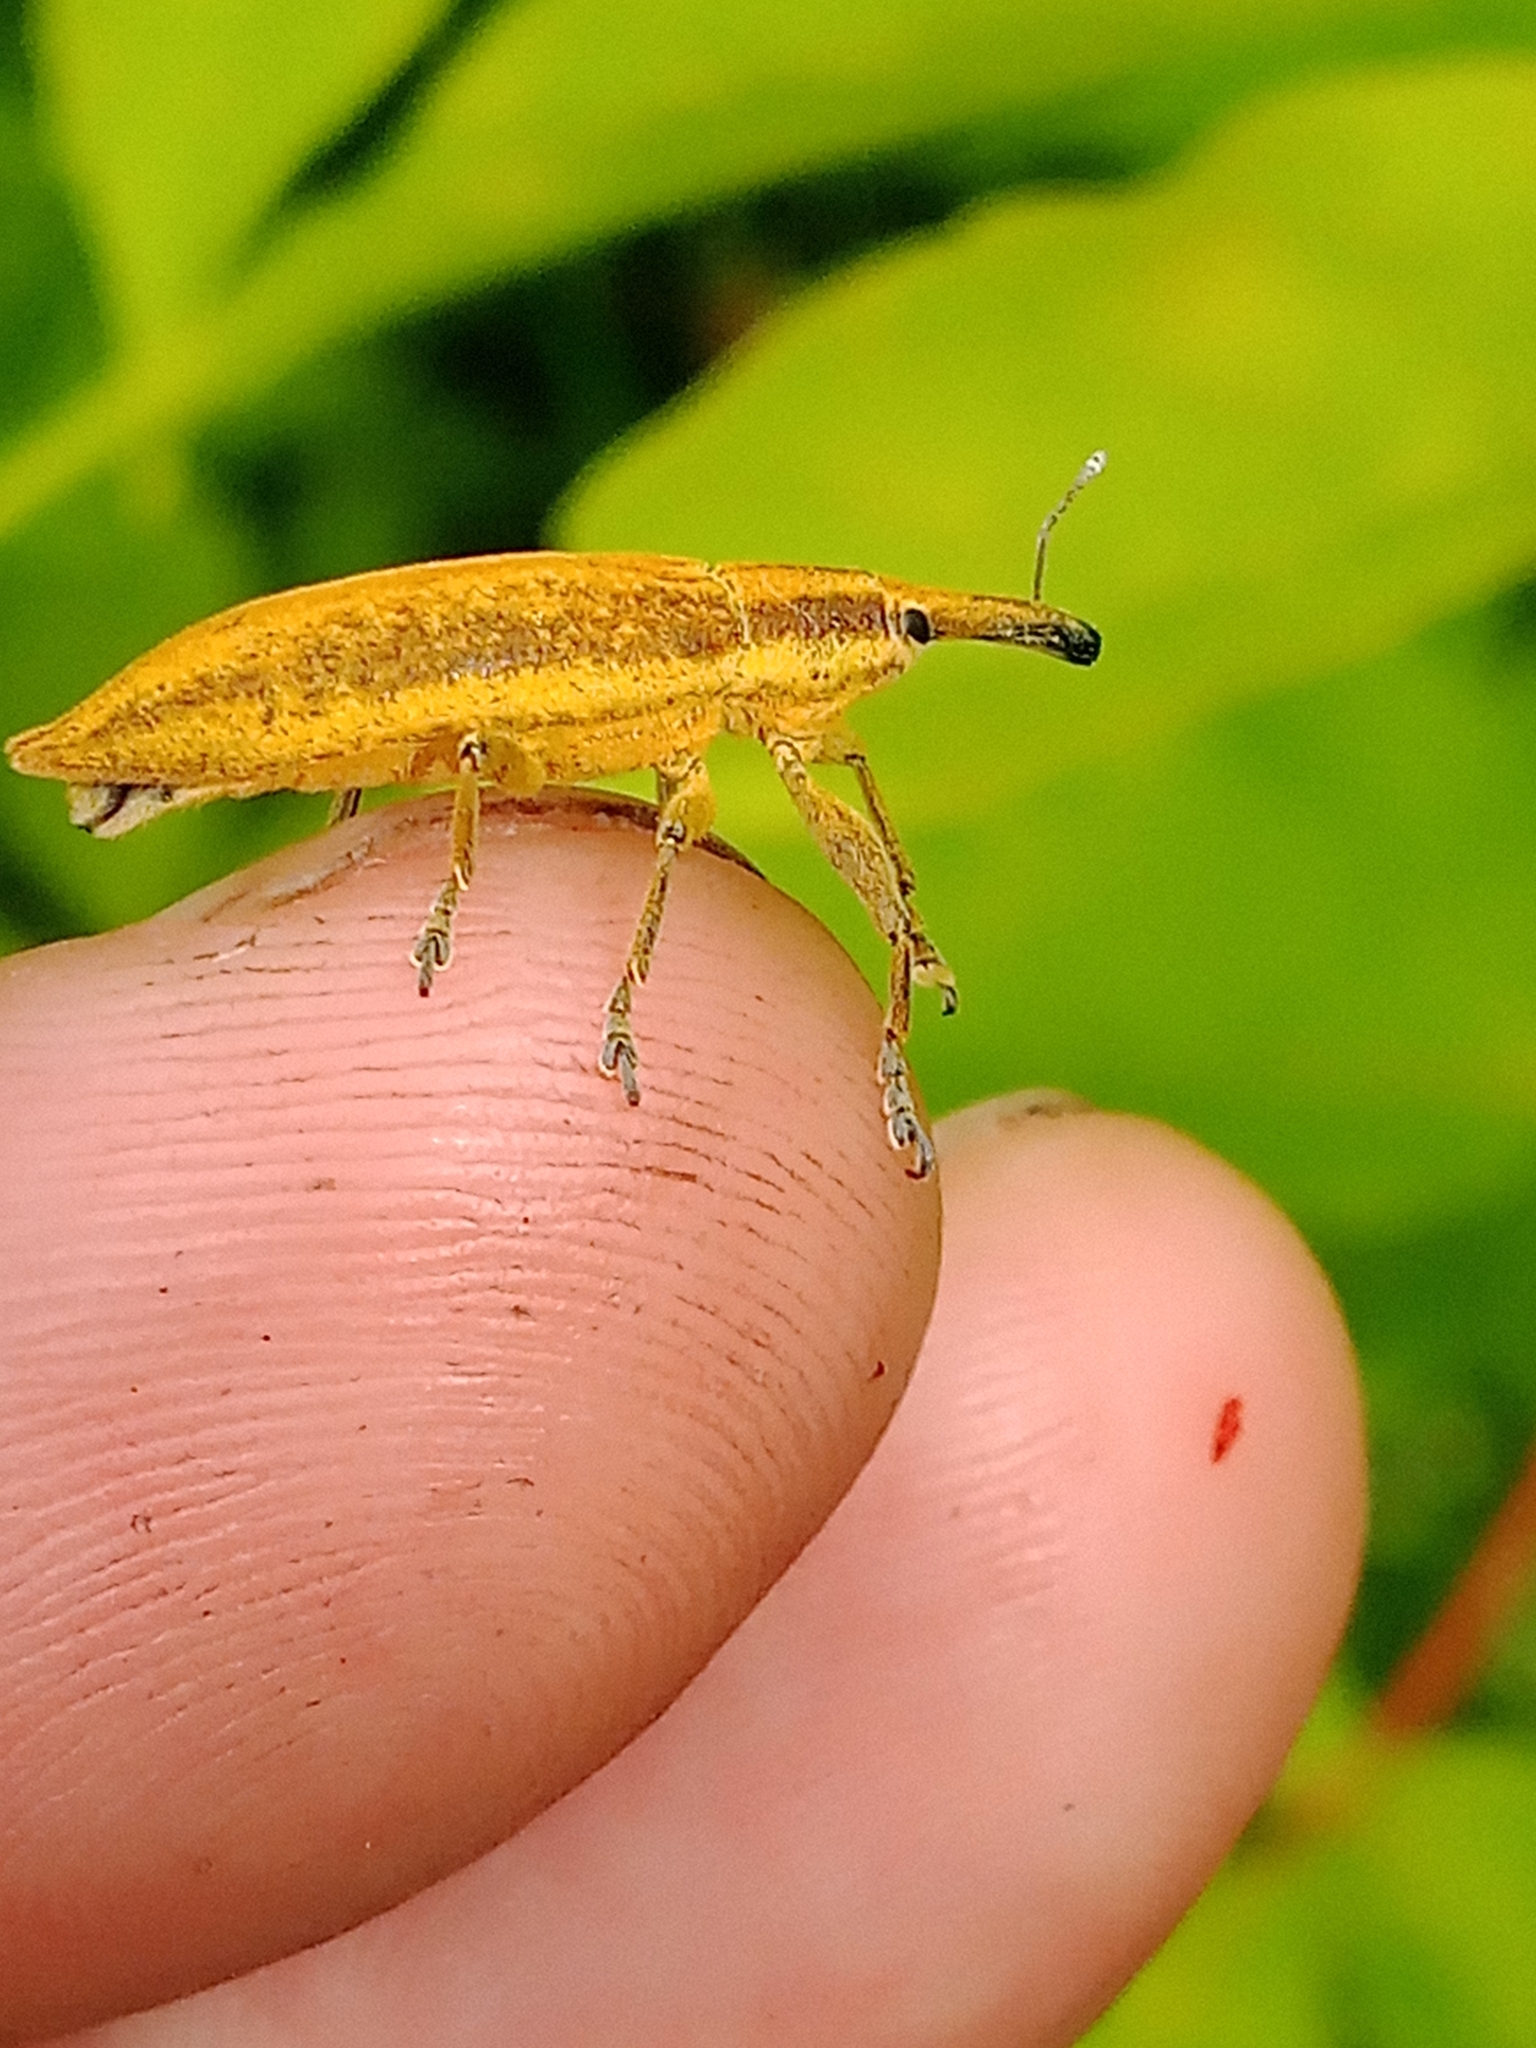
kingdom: Animalia
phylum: Arthropoda
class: Insecta
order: Coleoptera
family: Curculionidae
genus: Lixus
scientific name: Lixus iridis
